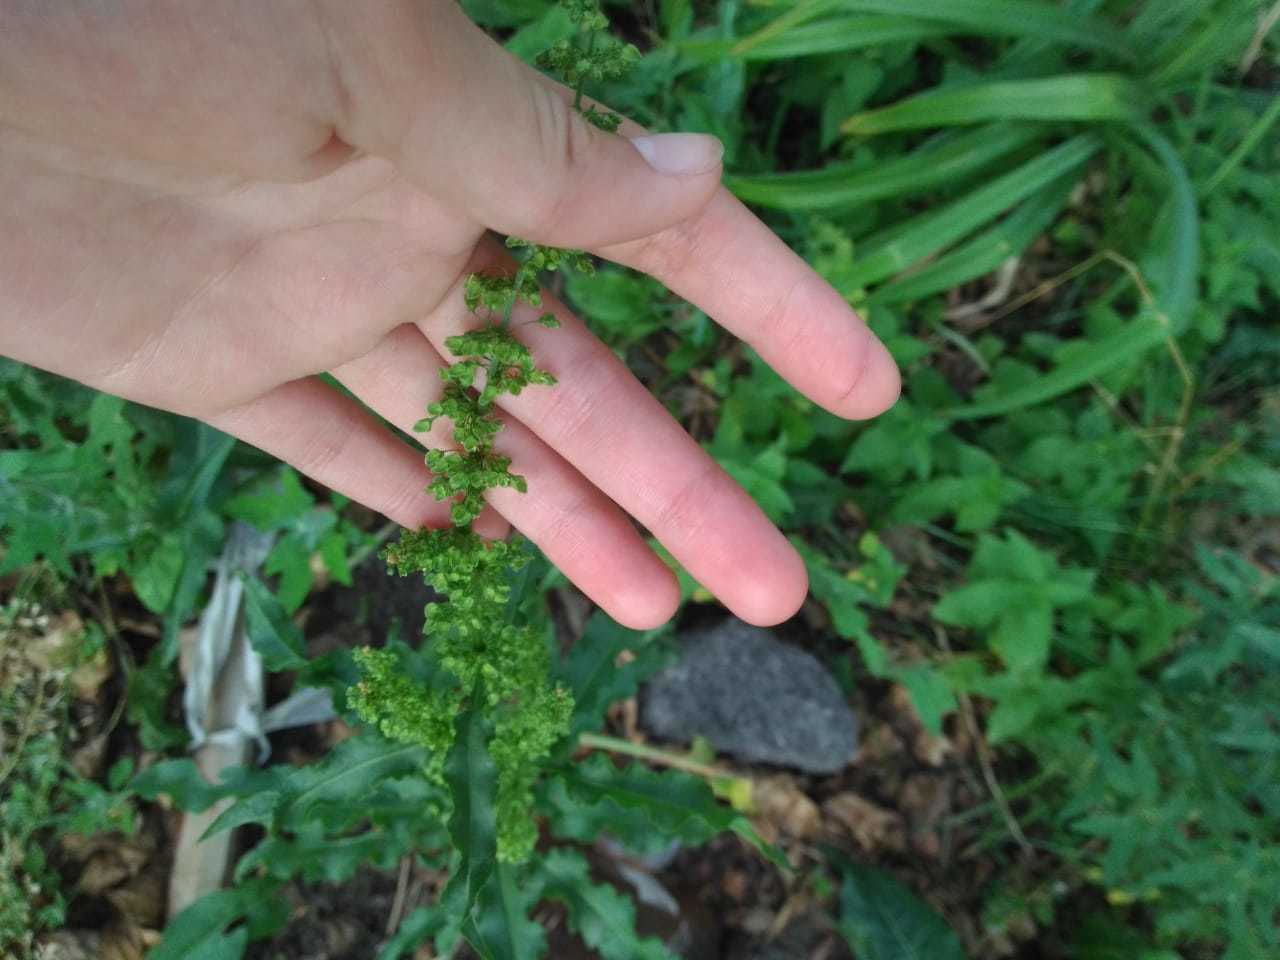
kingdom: Plantae
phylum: Tracheophyta
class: Magnoliopsida
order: Caryophyllales
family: Polygonaceae
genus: Rumex
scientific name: Rumex crispus
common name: Curled dock
